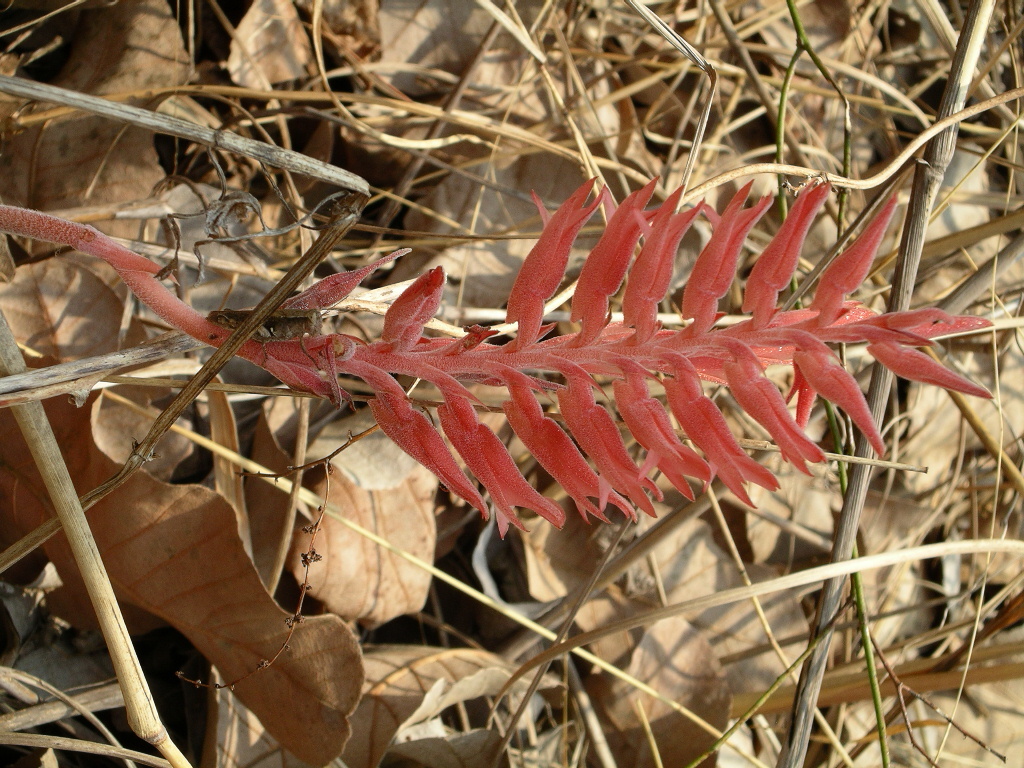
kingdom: Plantae
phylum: Tracheophyta
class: Liliopsida
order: Asparagales
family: Orchidaceae
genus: Sacoila
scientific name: Sacoila lanceolata
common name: Leafless beaked ladiestresses
